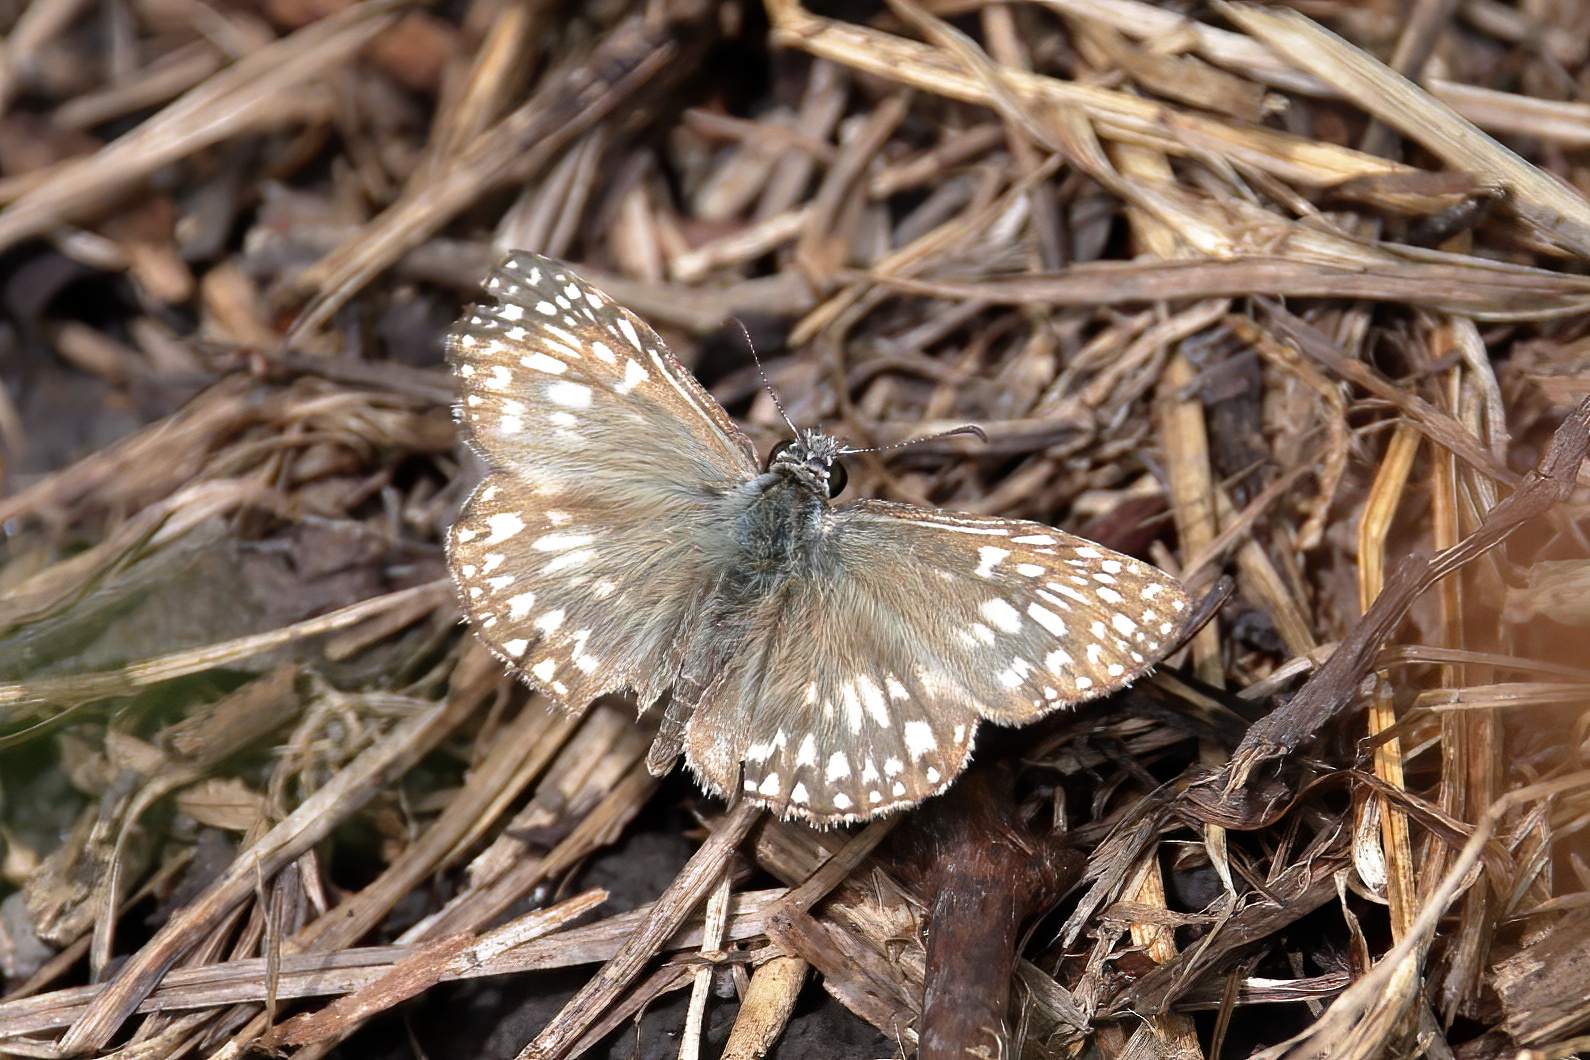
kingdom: Animalia
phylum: Arthropoda
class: Insecta
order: Lepidoptera
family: Hesperiidae
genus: Pyrgus
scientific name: Pyrgus oileus
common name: Tropical checkered-skipper
